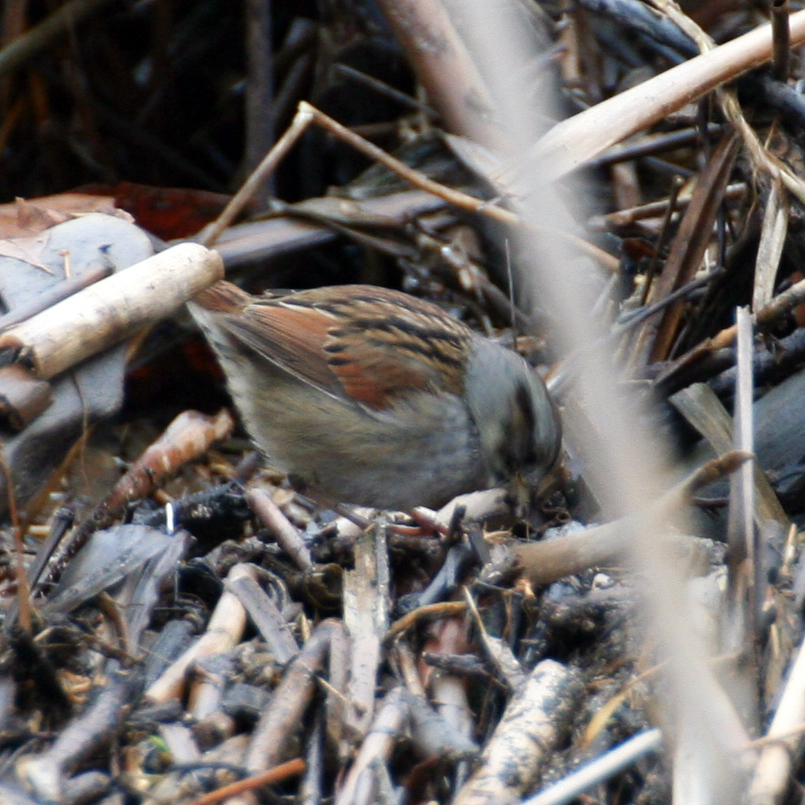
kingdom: Animalia
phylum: Chordata
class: Aves
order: Passeriformes
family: Passerellidae
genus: Melospiza
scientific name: Melospiza georgiana
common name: Swamp sparrow
